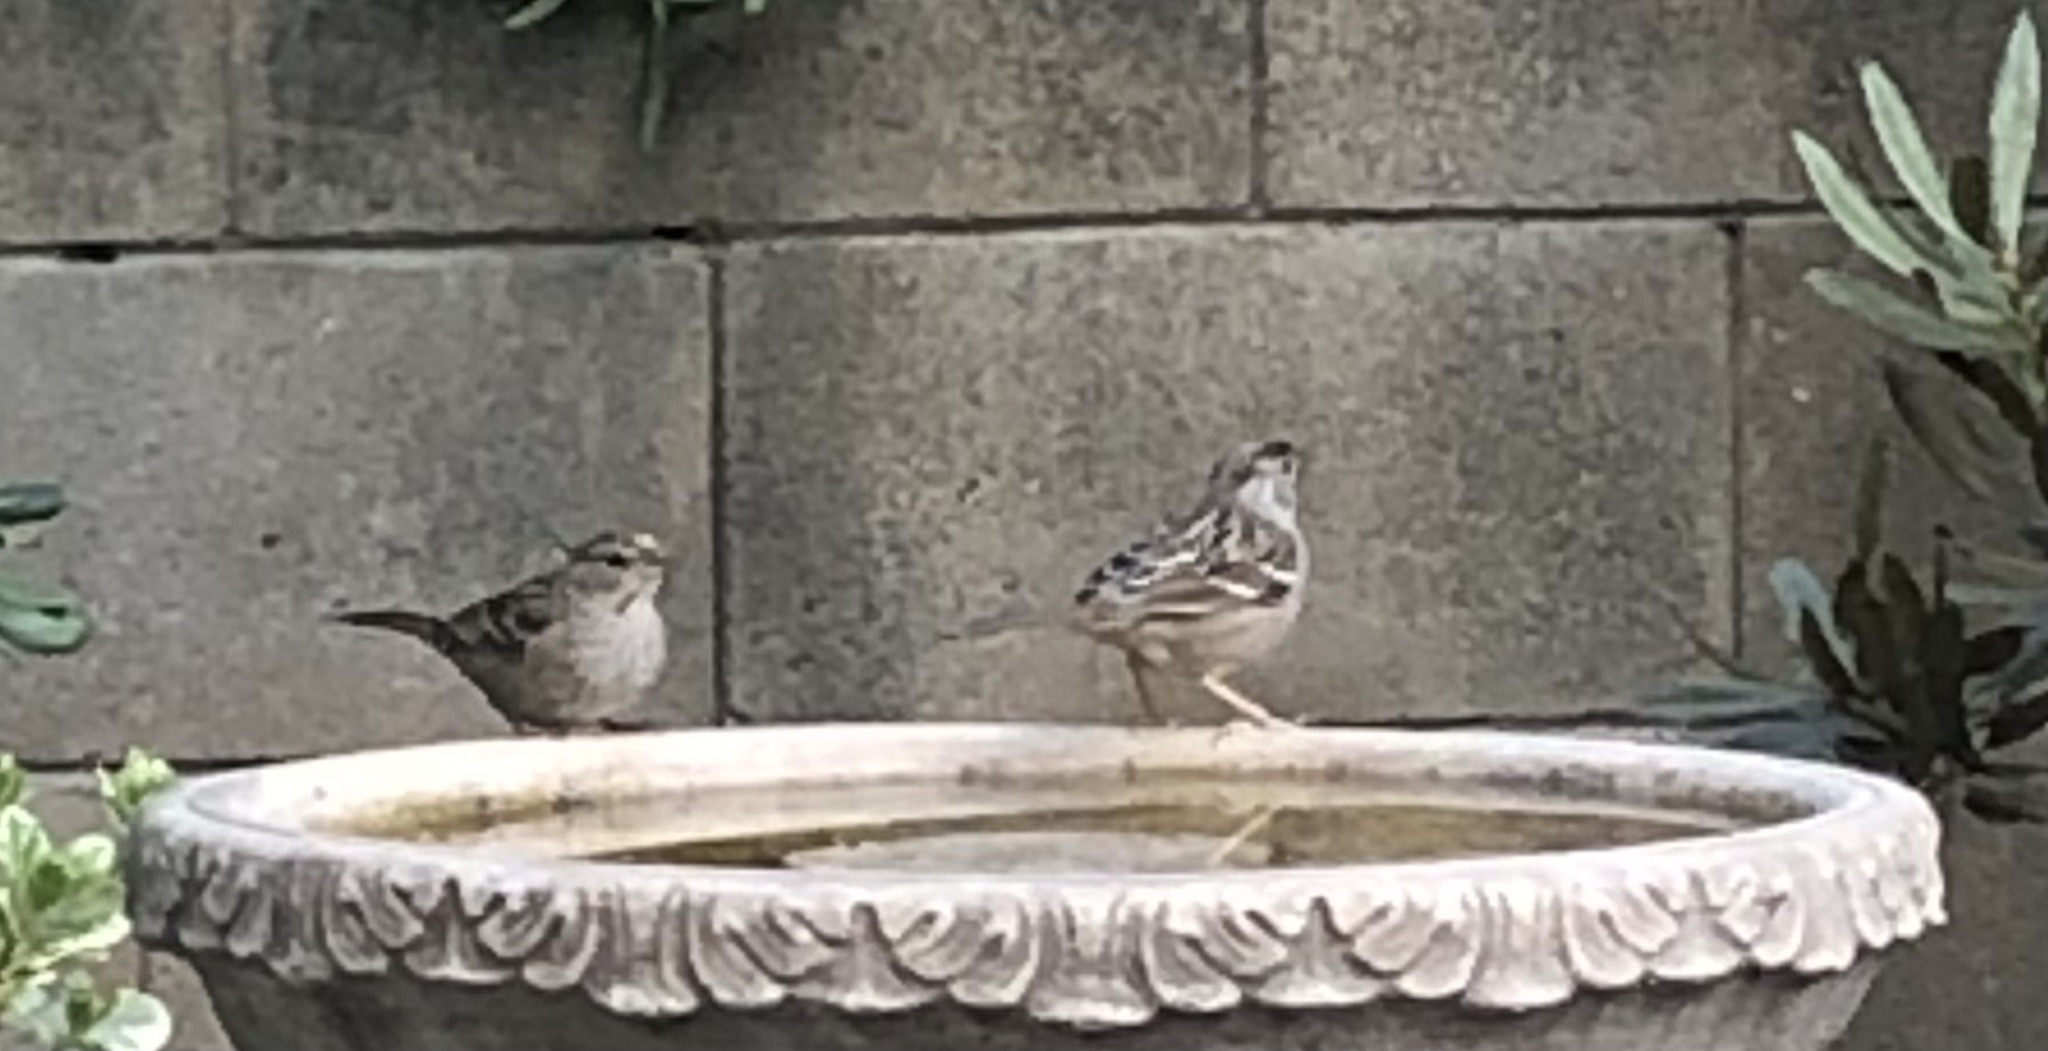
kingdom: Animalia
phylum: Chordata
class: Aves
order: Passeriformes
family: Passerellidae
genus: Zonotrichia
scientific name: Zonotrichia atricapilla
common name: Golden-crowned sparrow
